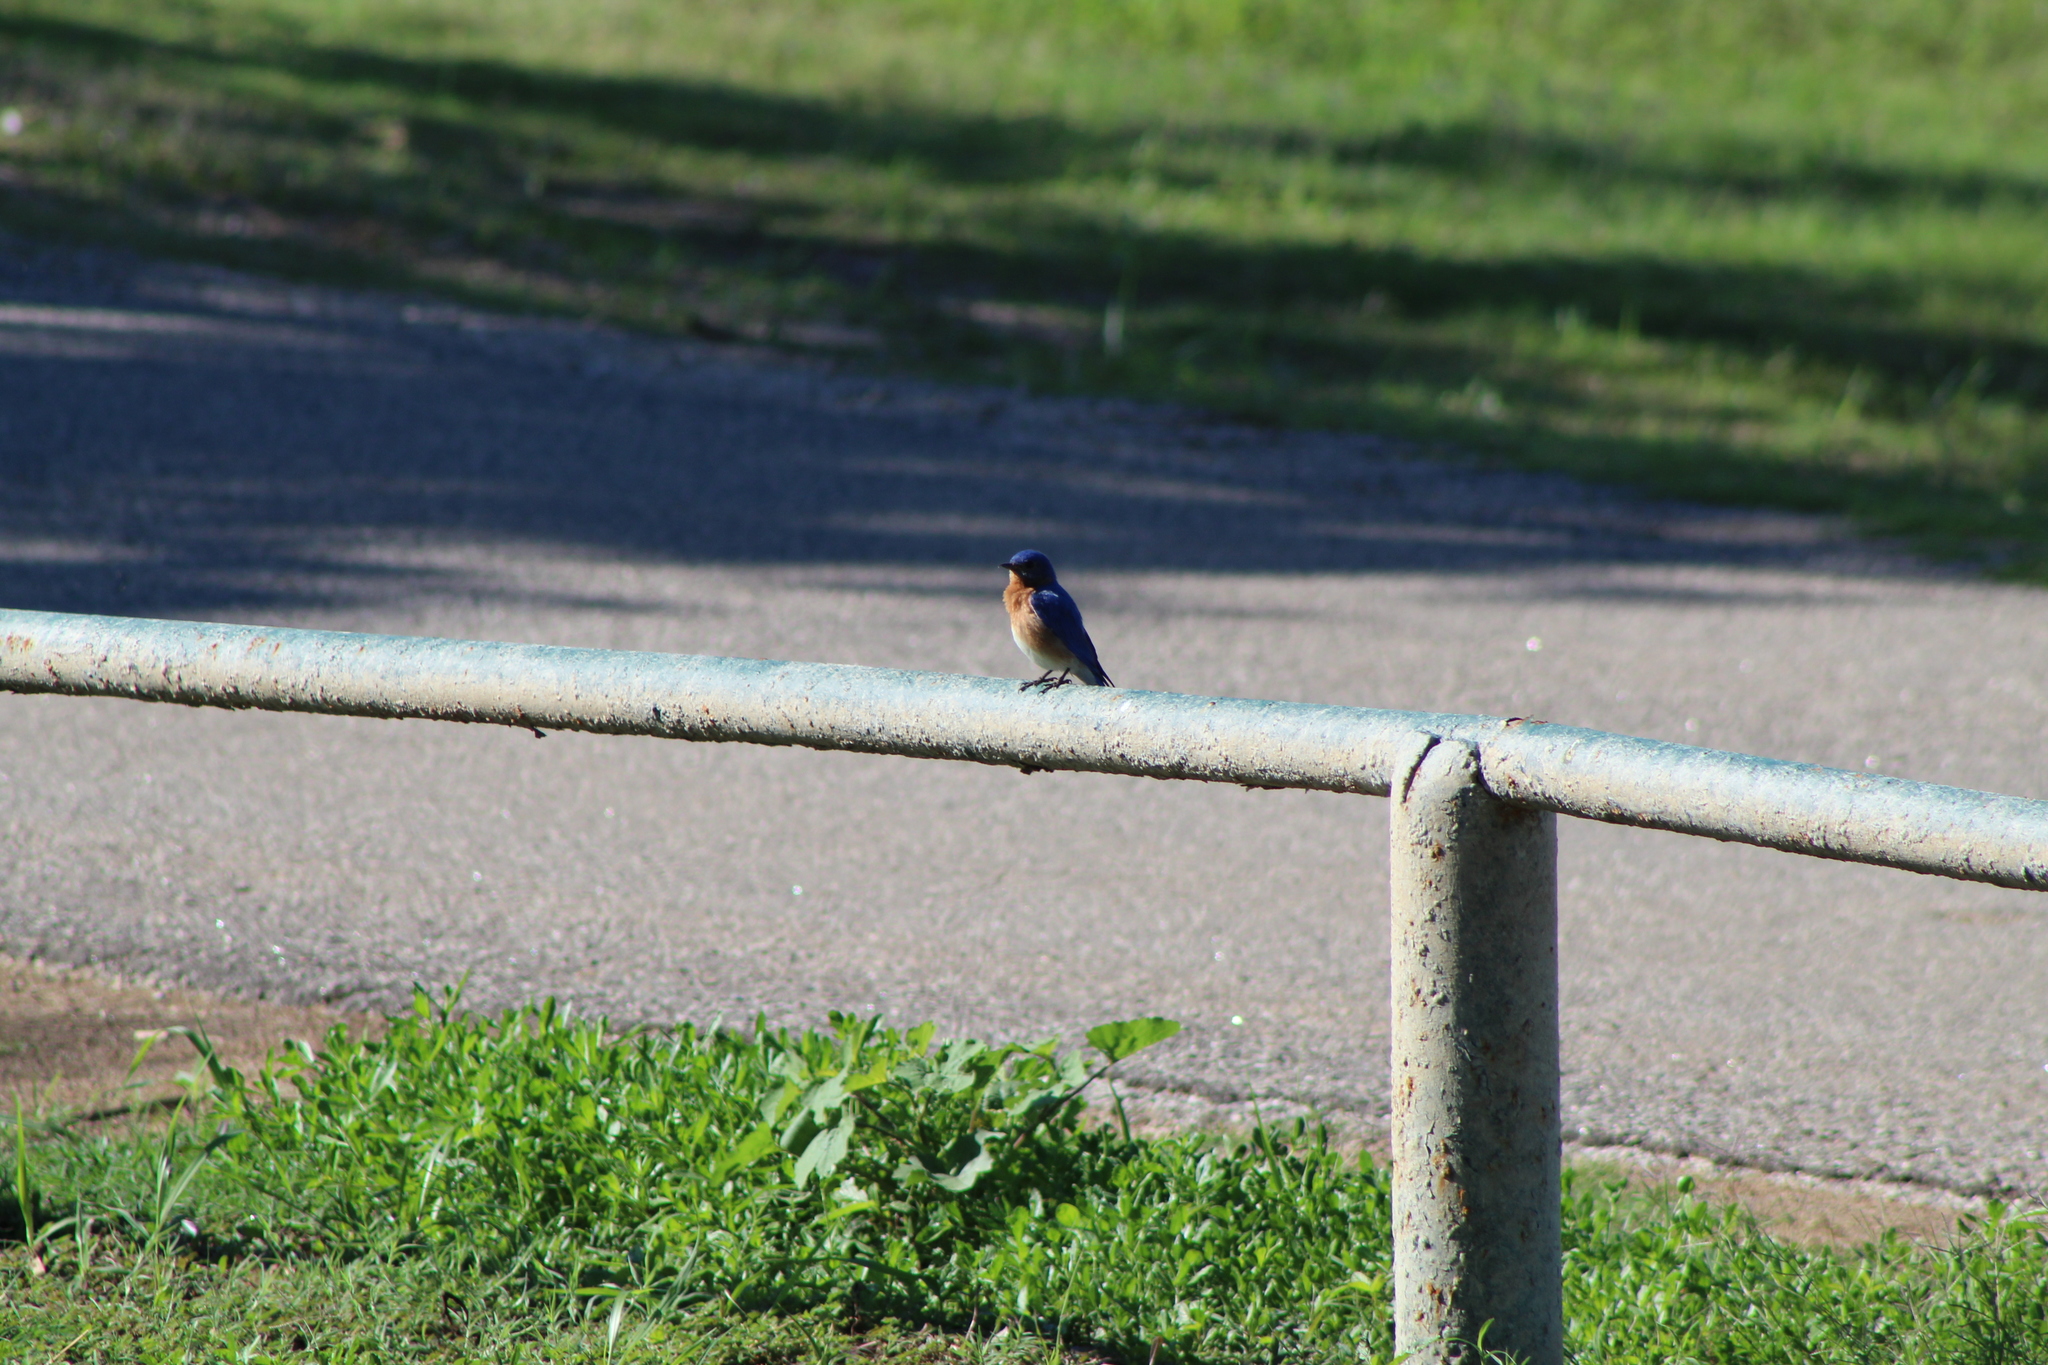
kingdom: Animalia
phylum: Chordata
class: Aves
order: Passeriformes
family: Turdidae
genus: Sialia
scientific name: Sialia sialis
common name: Eastern bluebird
